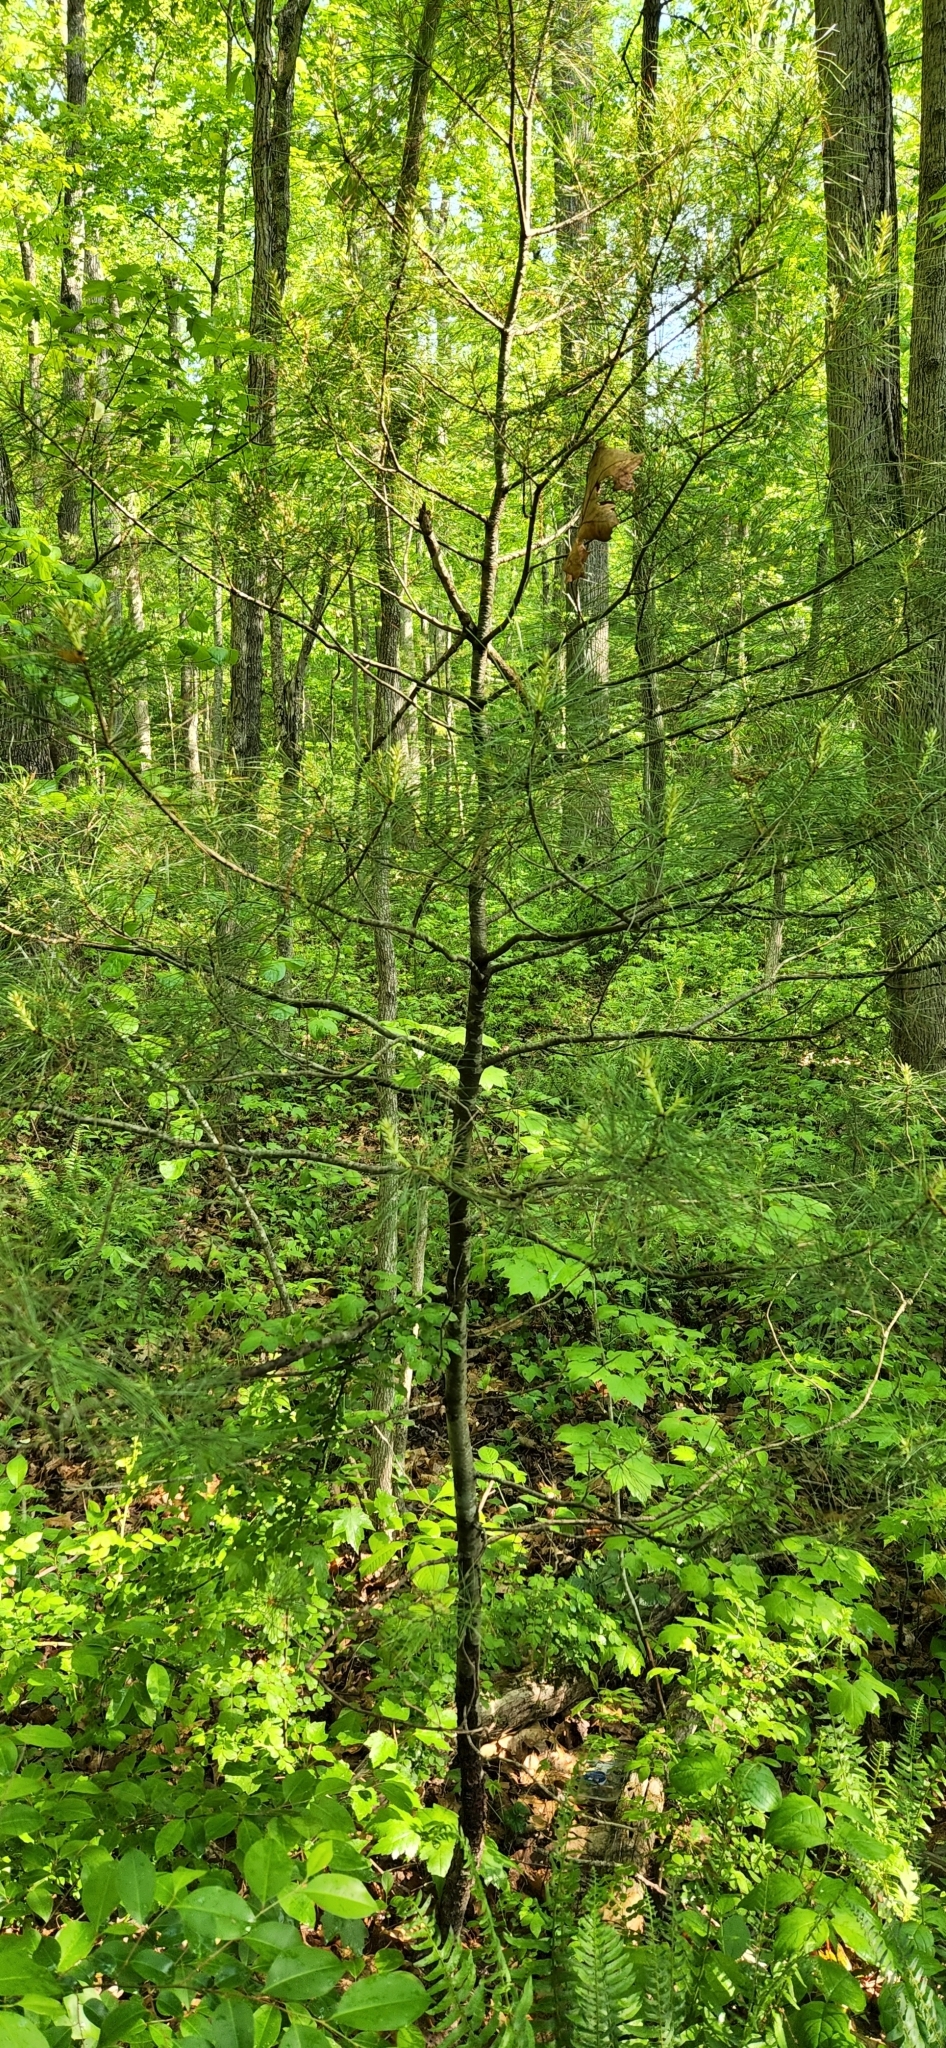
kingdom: Plantae
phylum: Tracheophyta
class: Pinopsida
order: Pinales
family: Pinaceae
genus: Pinus
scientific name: Pinus strobus
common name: Weymouth pine
